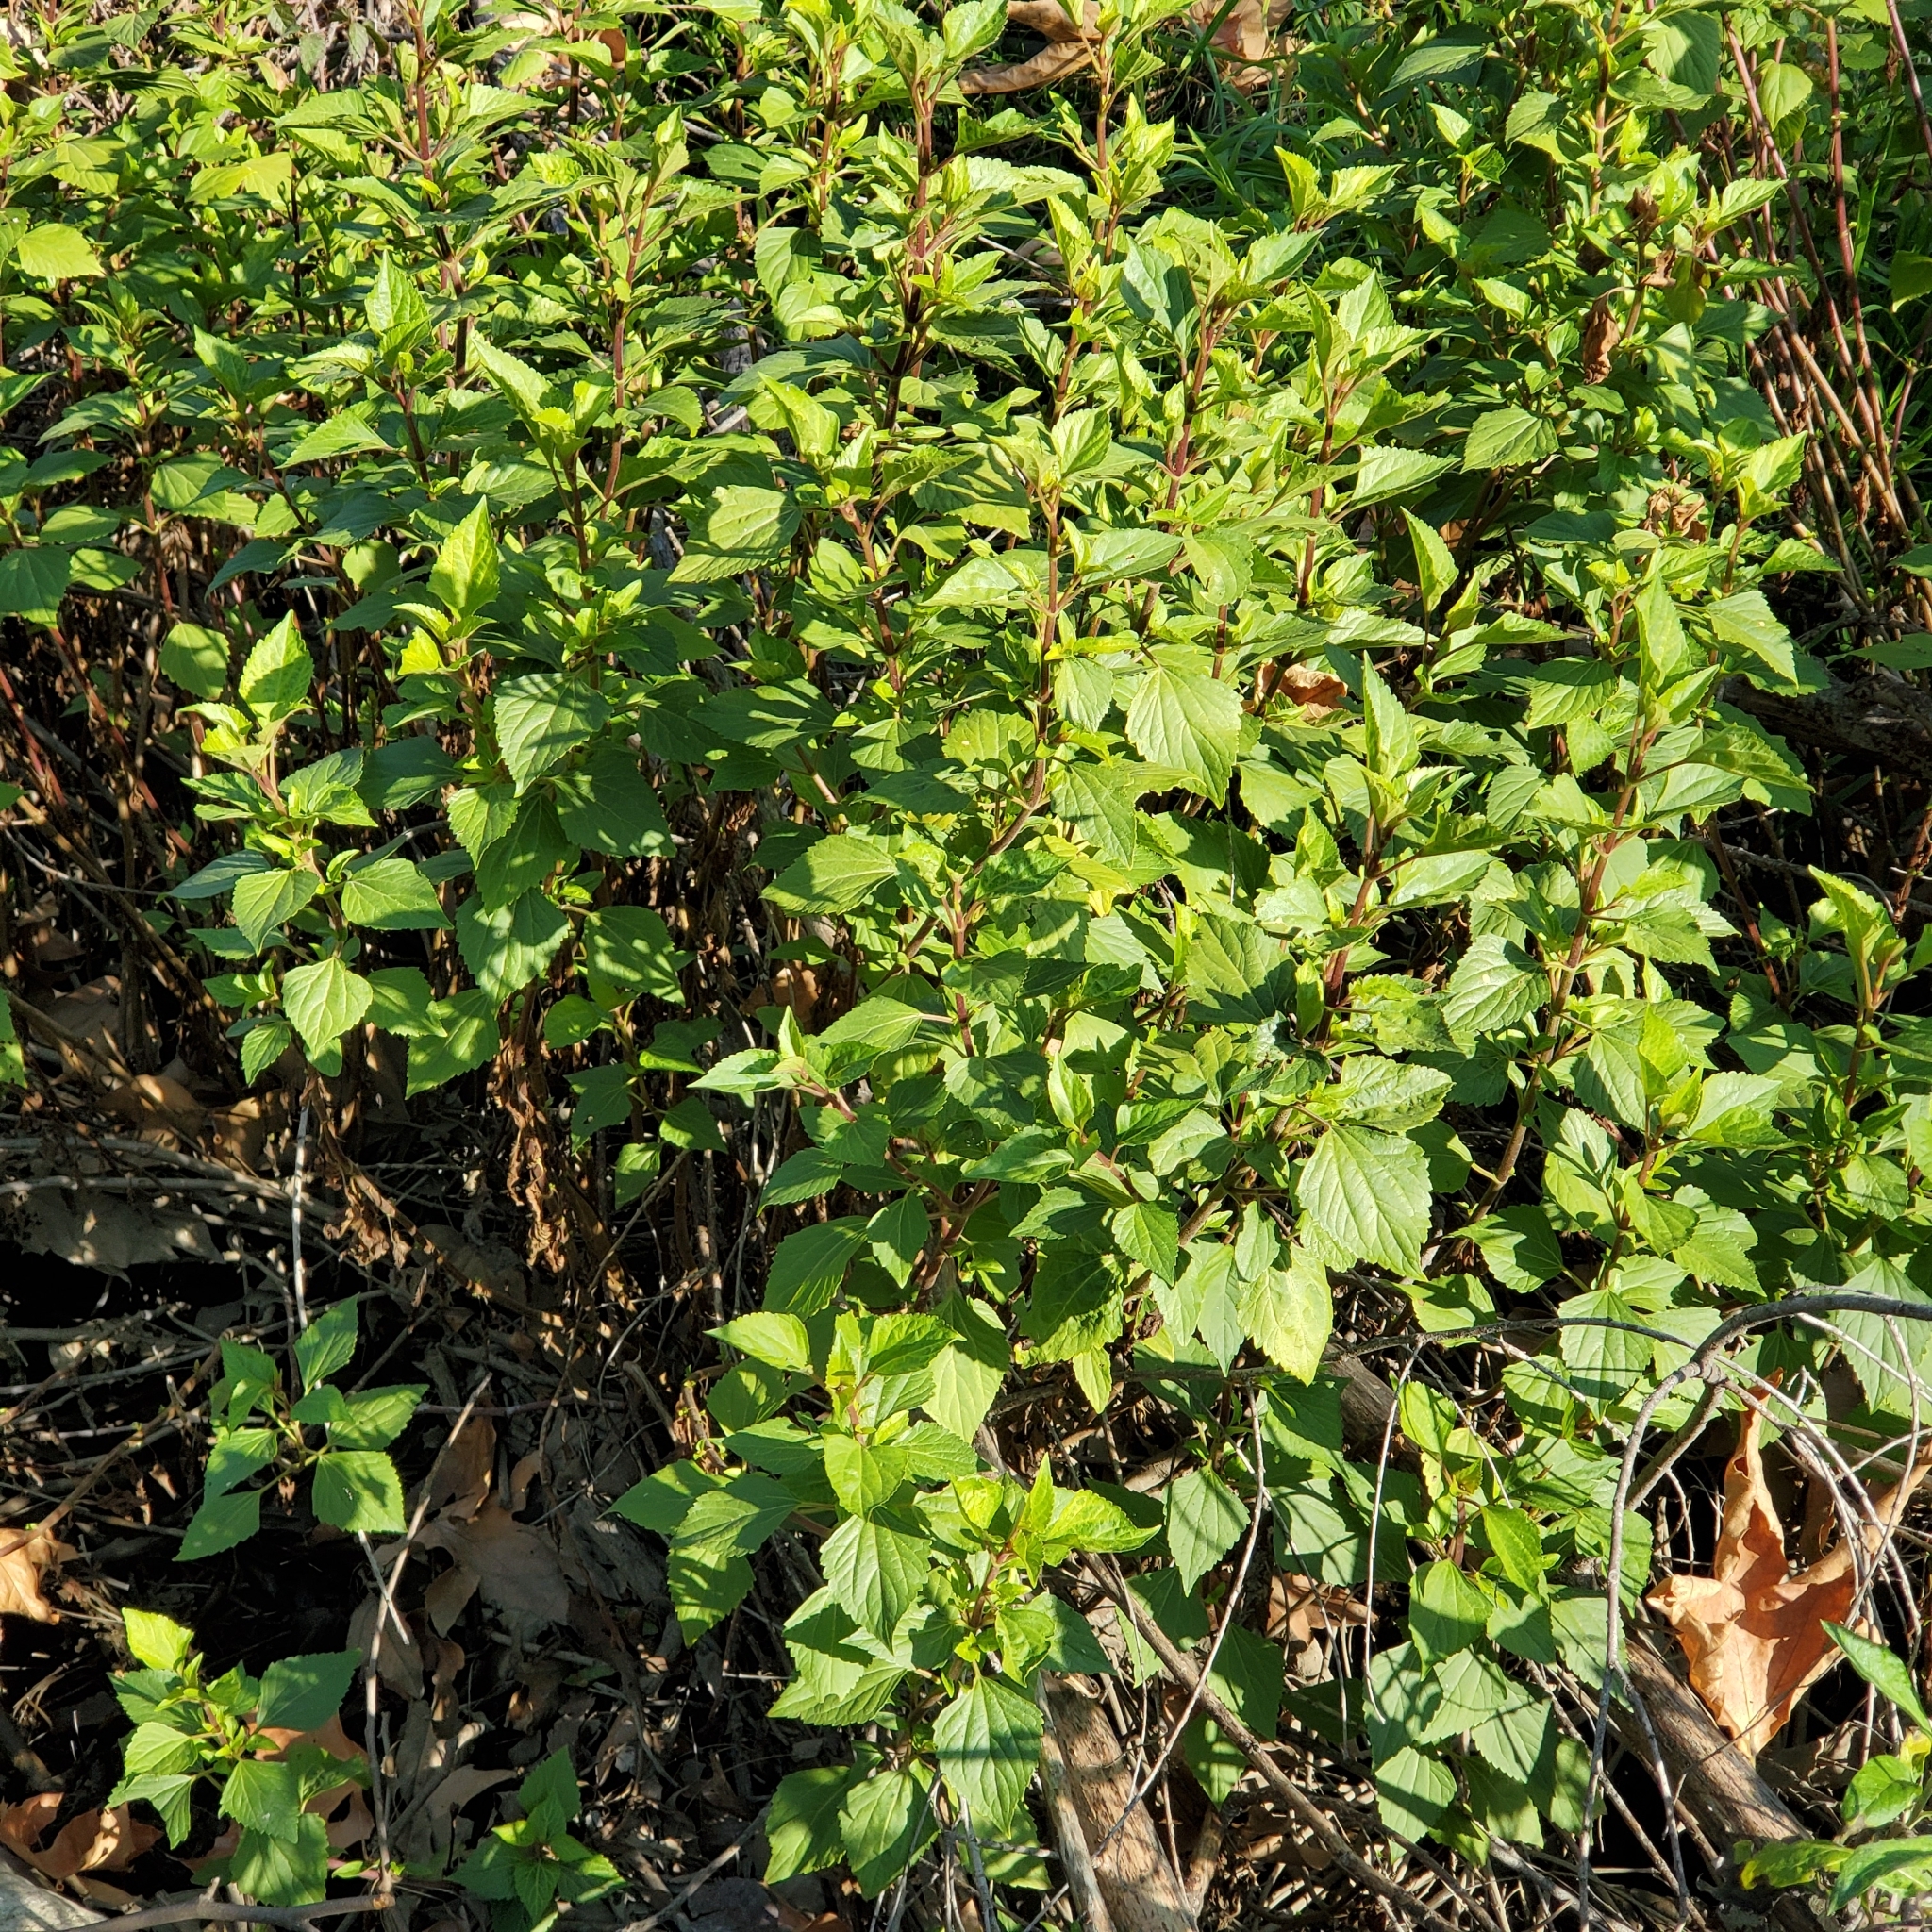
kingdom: Plantae
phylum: Tracheophyta
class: Magnoliopsida
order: Asterales
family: Asteraceae
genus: Ageratina
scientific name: Ageratina adenophora
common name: Sticky snakeroot
